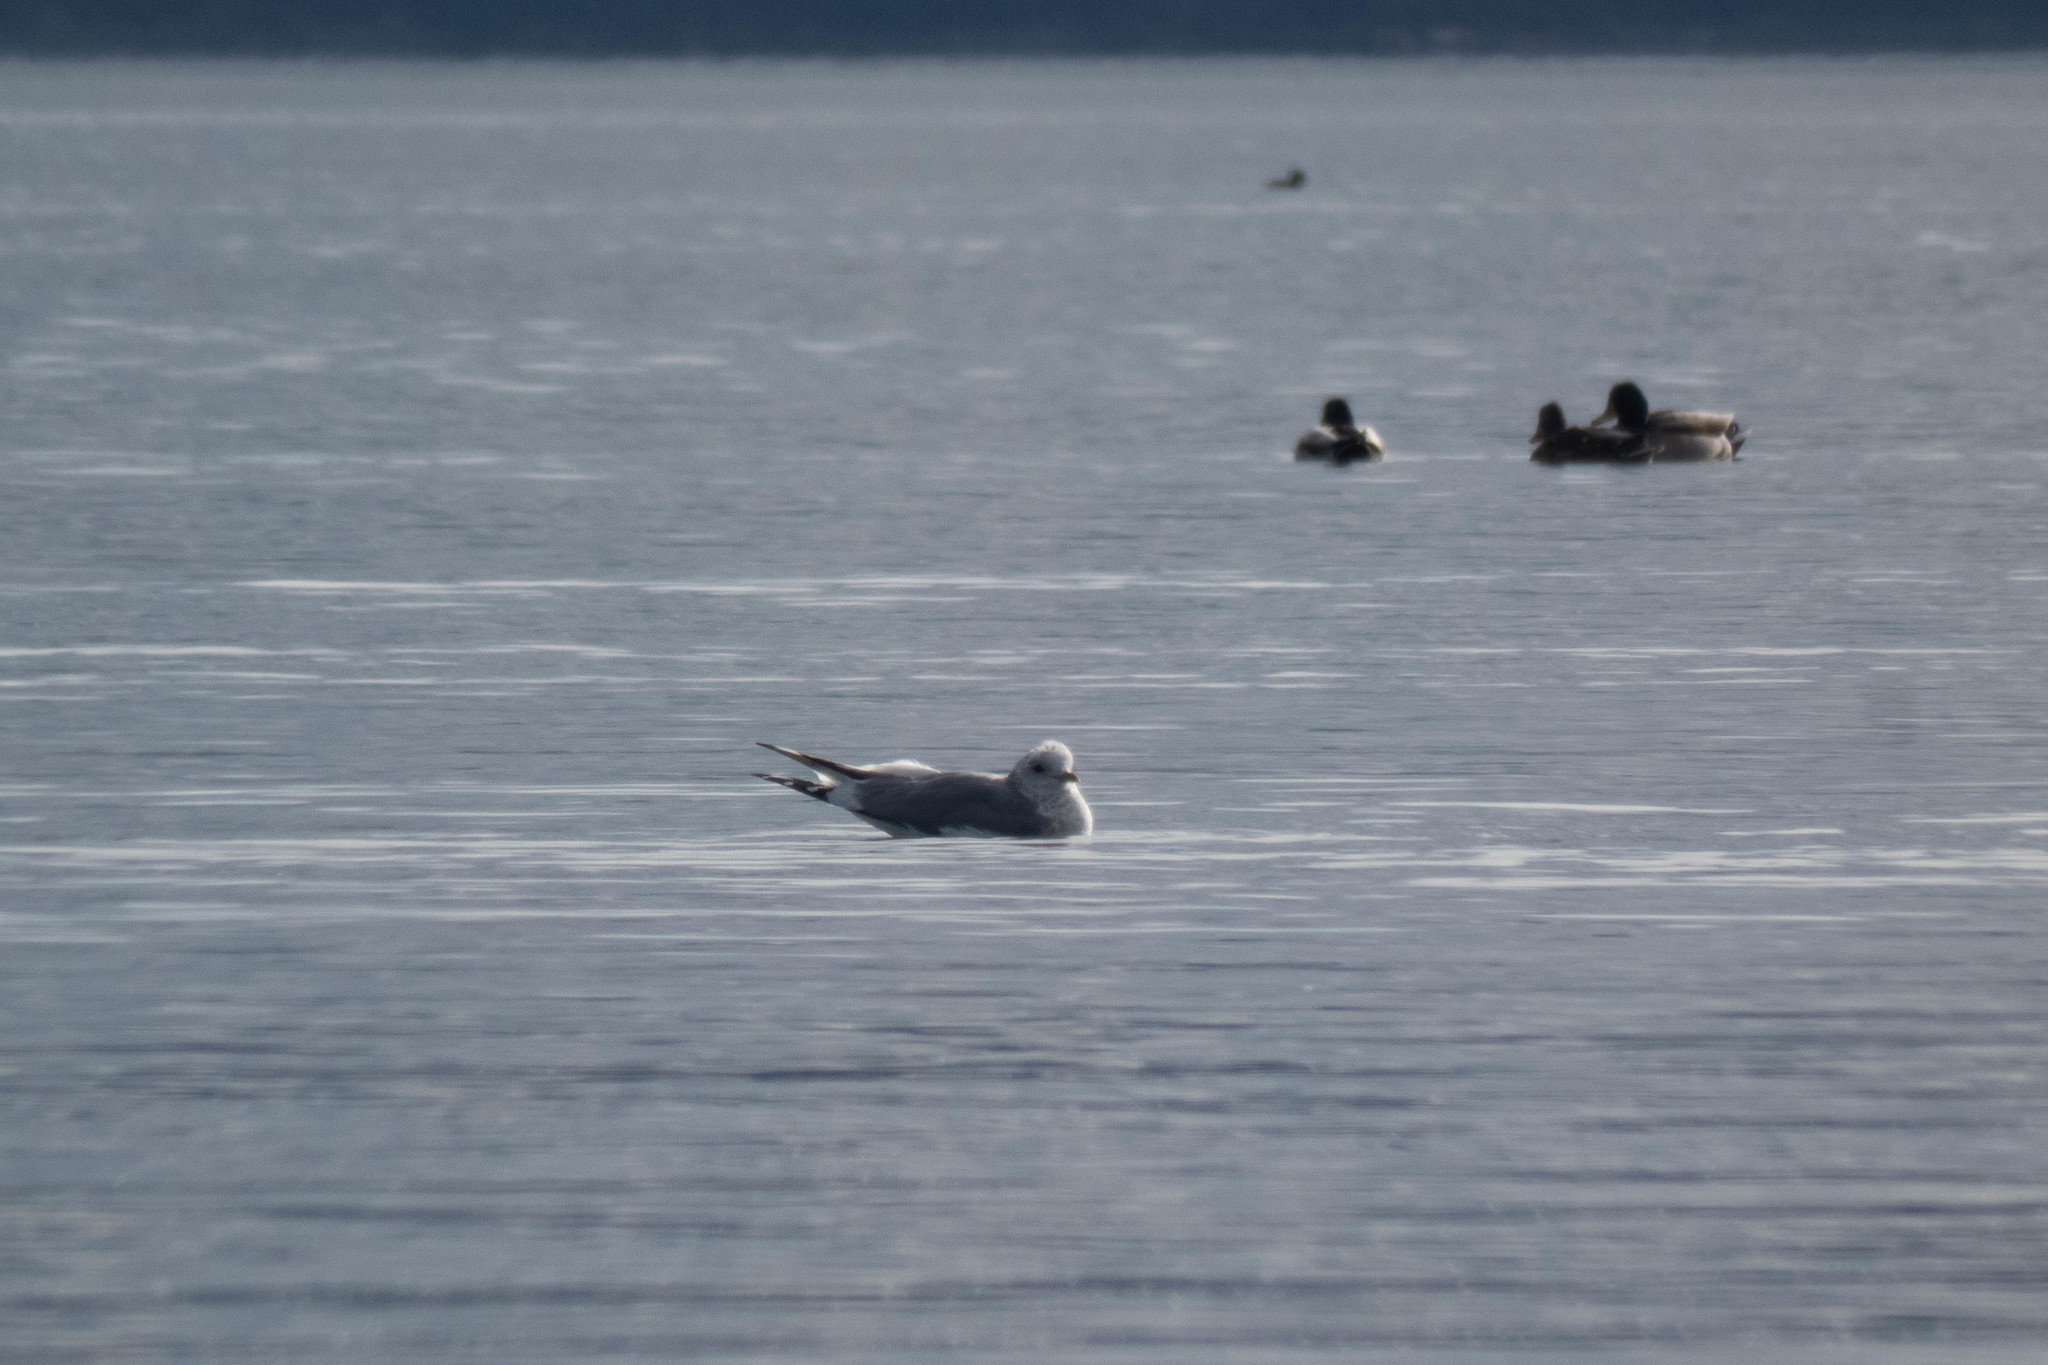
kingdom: Animalia
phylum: Chordata
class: Aves
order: Charadriiformes
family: Laridae
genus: Larus
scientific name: Larus brachyrhynchus
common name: Short-billed gull
